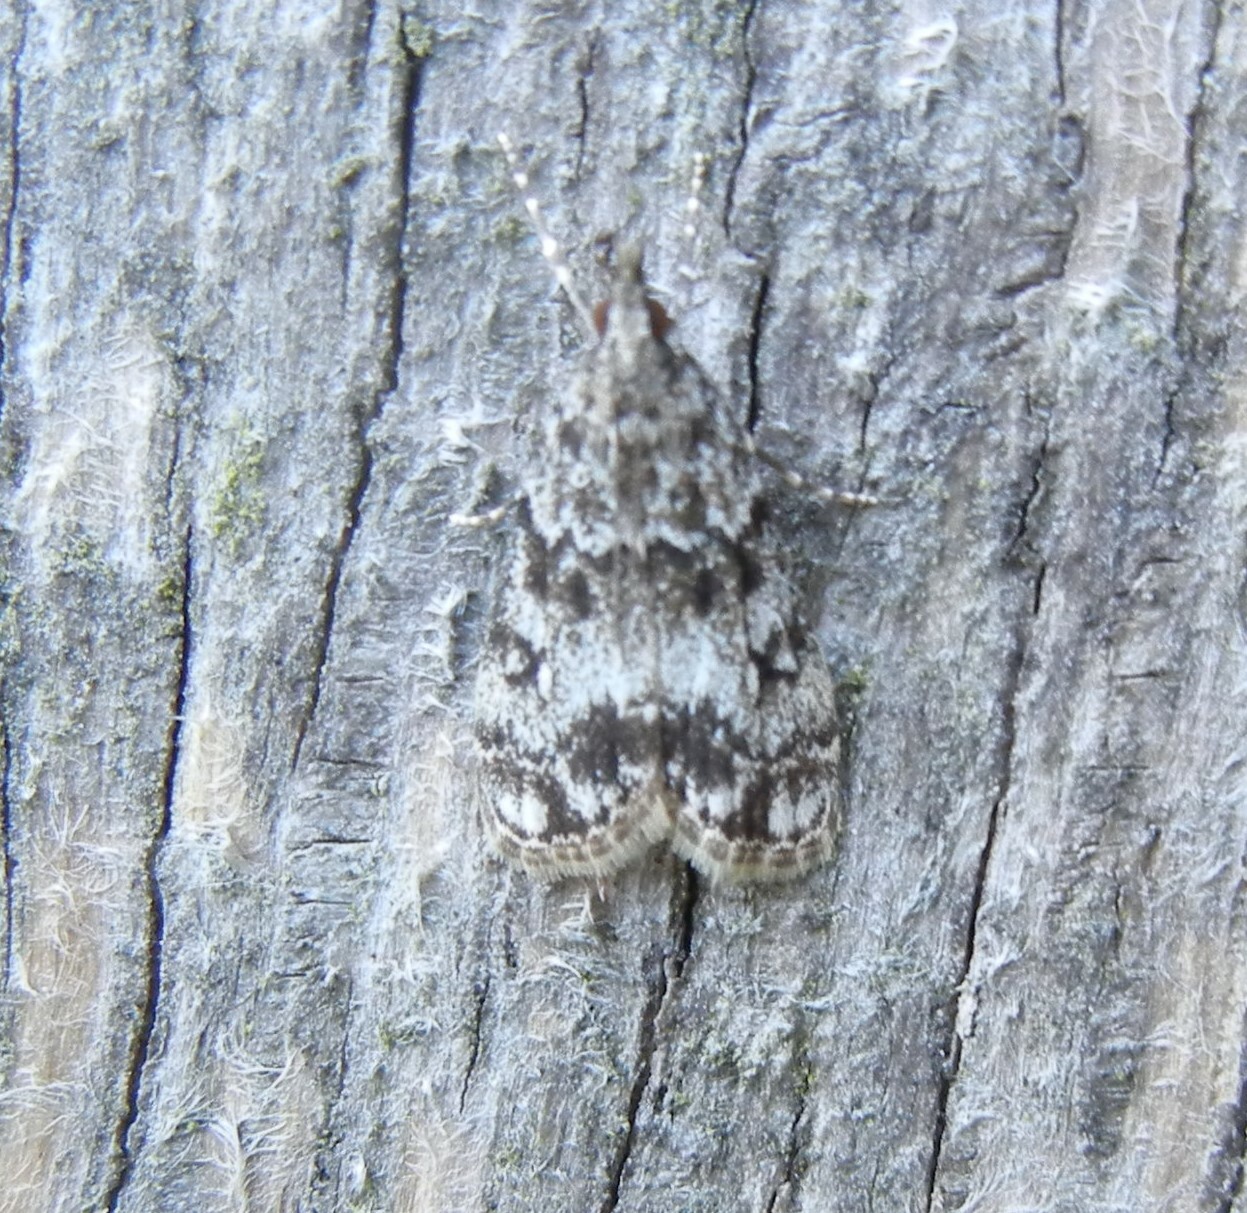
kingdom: Animalia
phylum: Arthropoda
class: Insecta
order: Lepidoptera
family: Crambidae
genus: Eudonia
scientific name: Eudonia lacustrata
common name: Little grey
